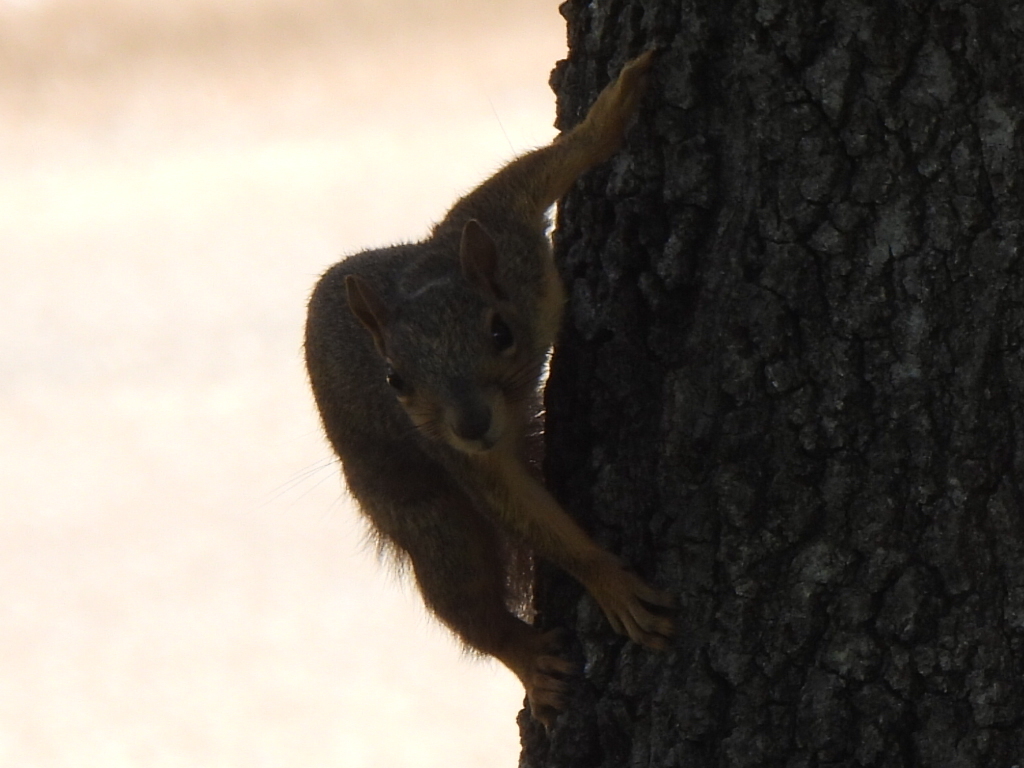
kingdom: Animalia
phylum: Chordata
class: Mammalia
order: Rodentia
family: Sciuridae
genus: Sciurus
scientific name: Sciurus niger
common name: Fox squirrel
